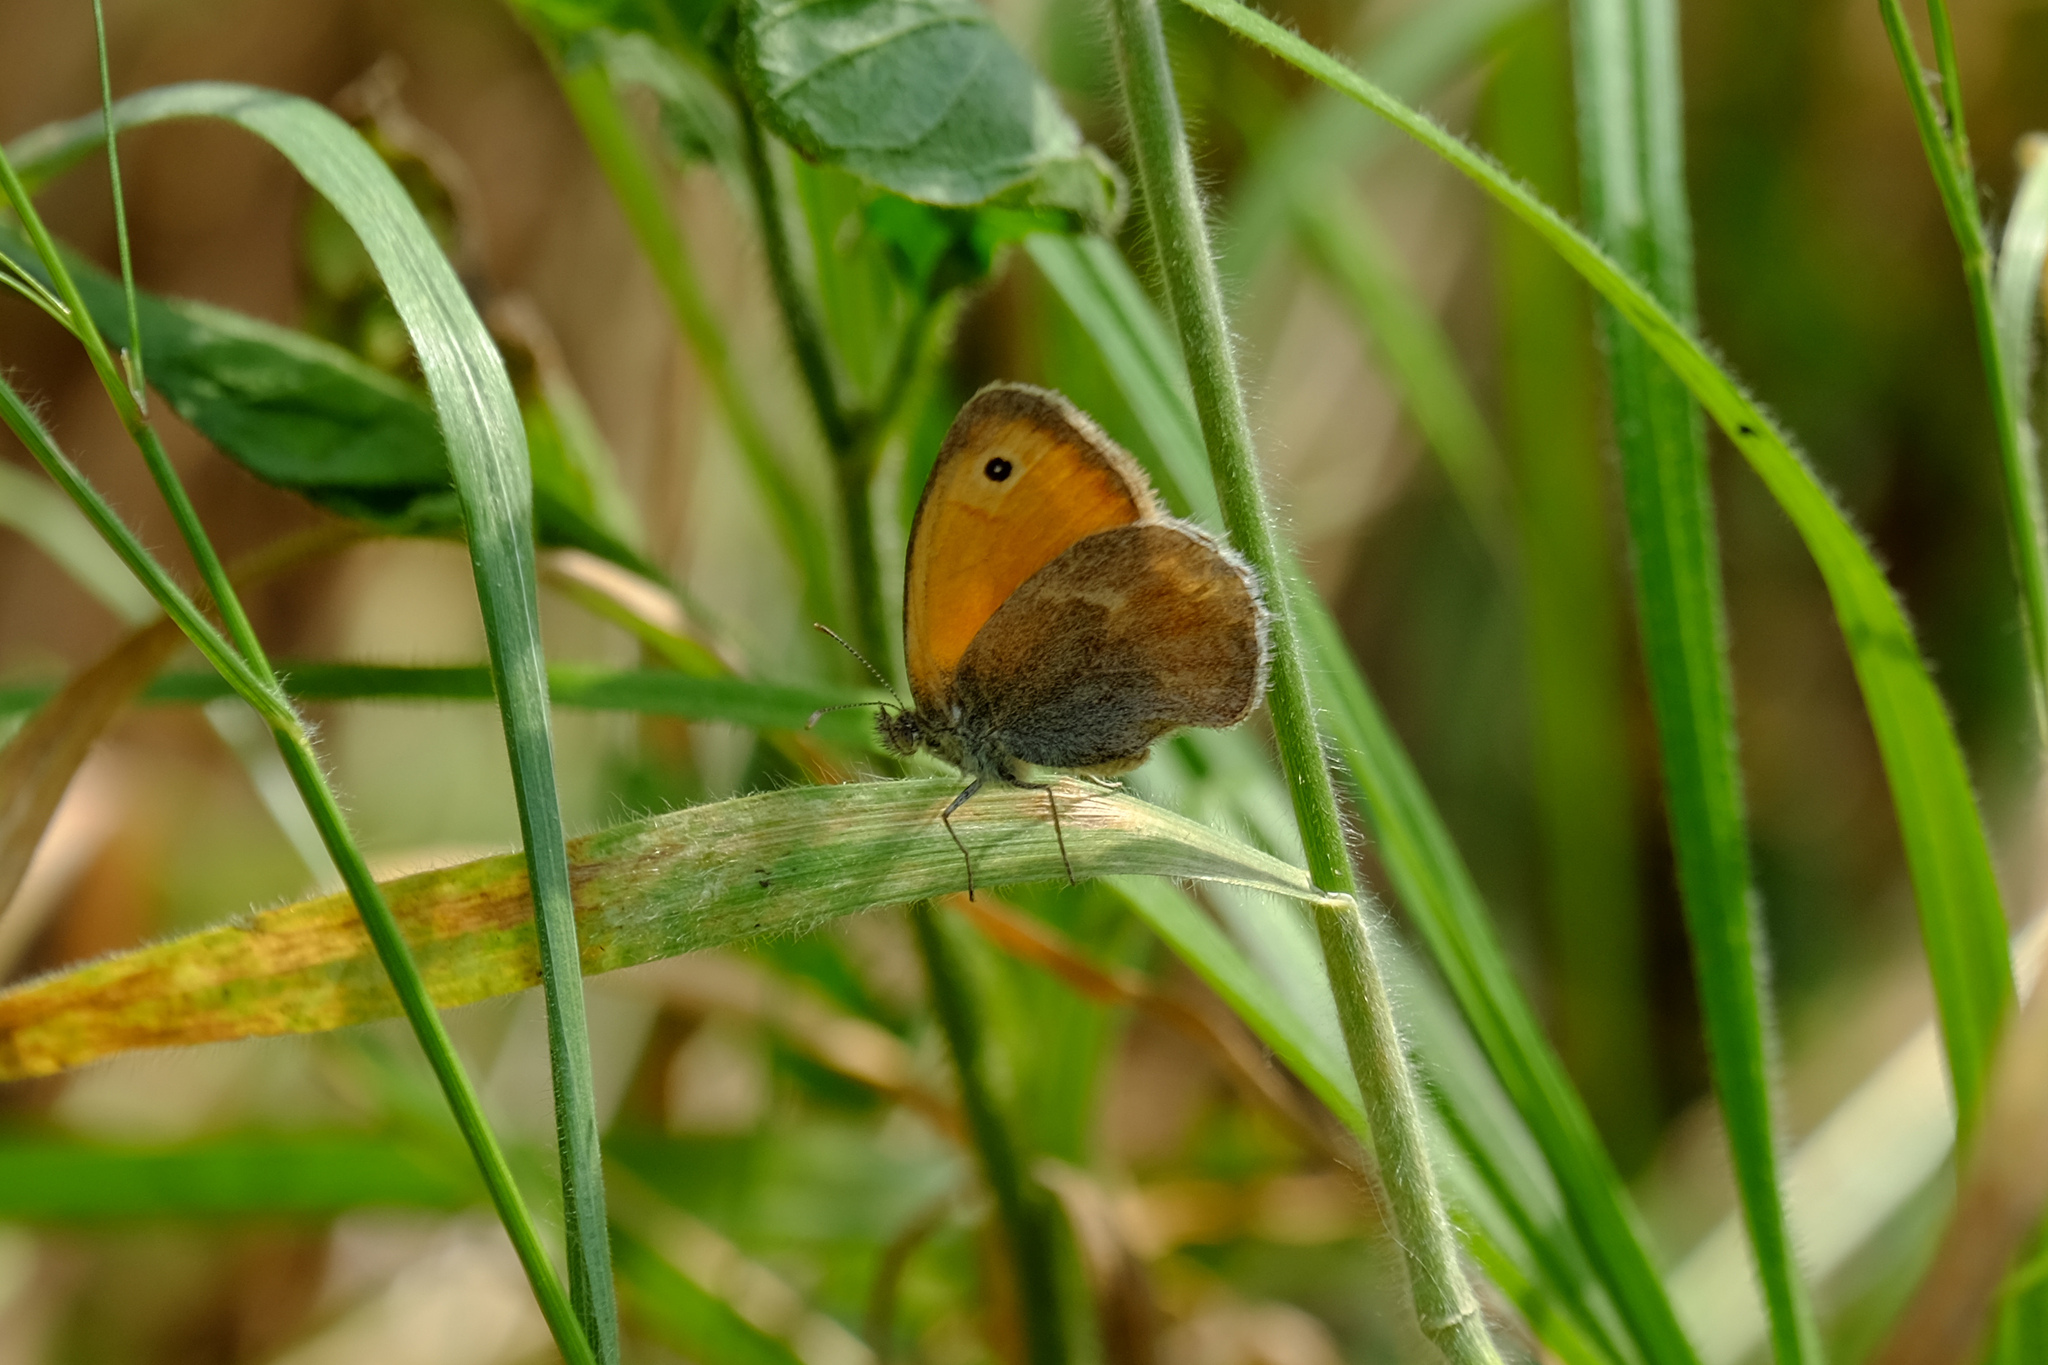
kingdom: Animalia
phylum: Arthropoda
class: Insecta
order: Lepidoptera
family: Nymphalidae
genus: Coenonympha
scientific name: Coenonympha pamphilus
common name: Small heath
